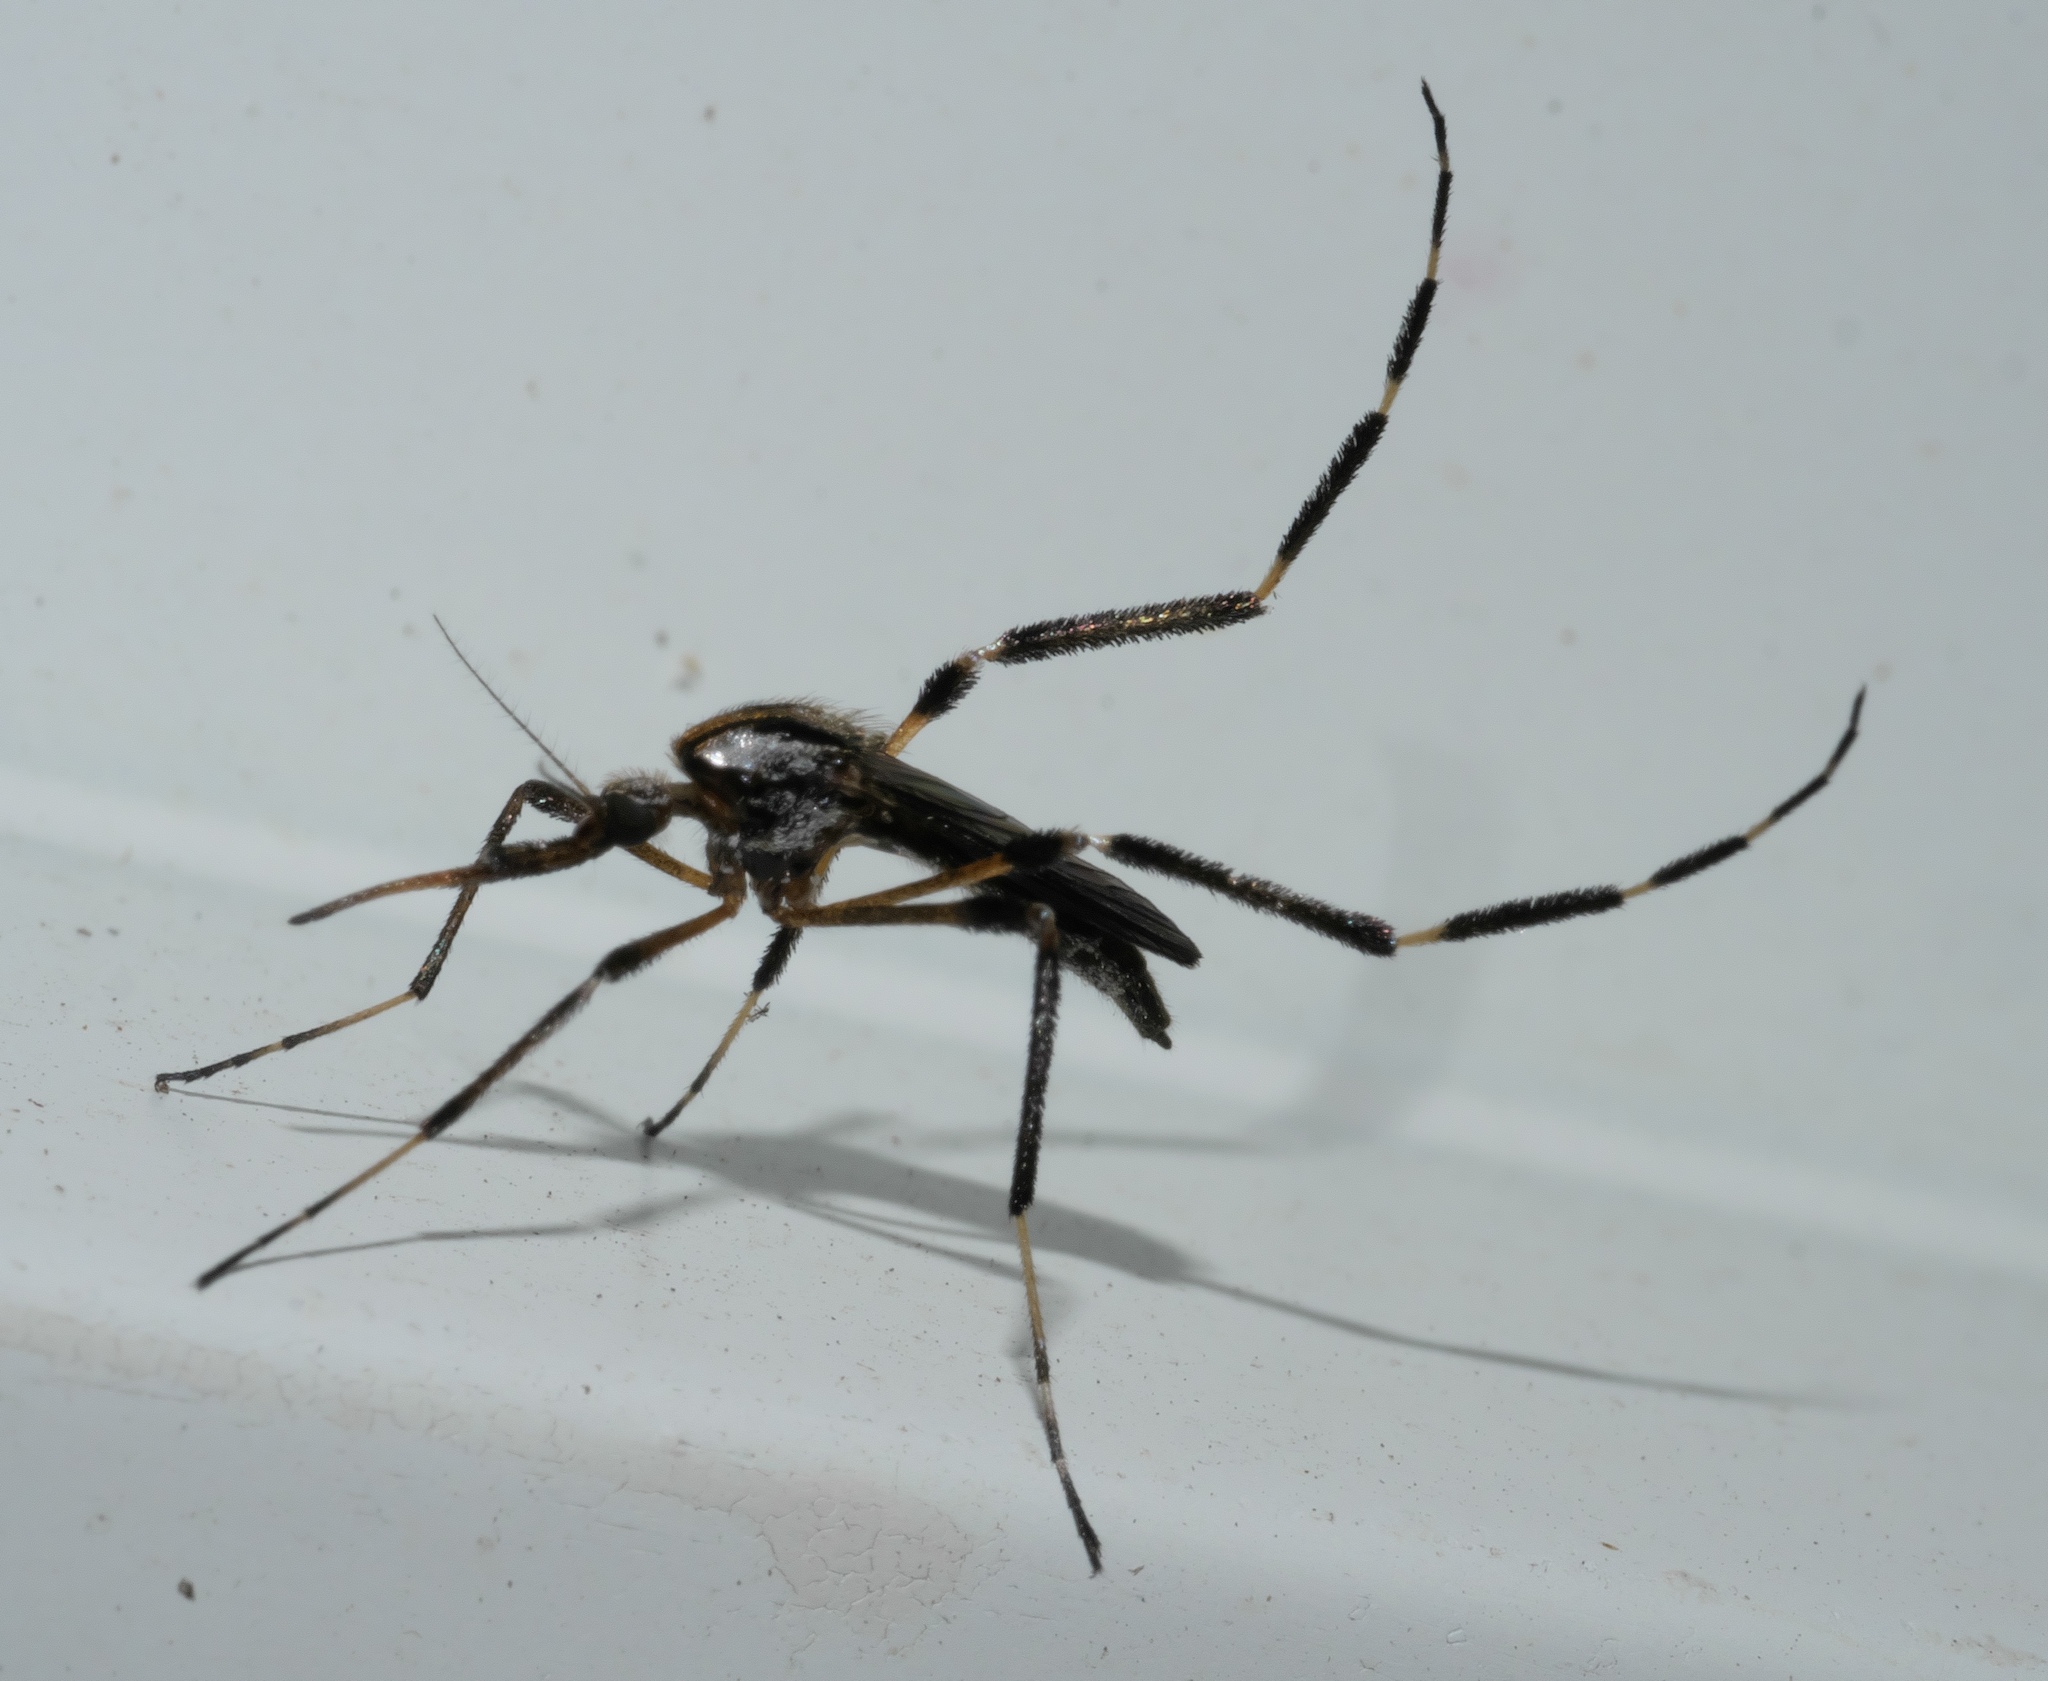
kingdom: Animalia
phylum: Arthropoda
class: Insecta
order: Diptera
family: Culicidae
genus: Psorophora
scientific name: Psorophora ciliata
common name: Gallinipper
